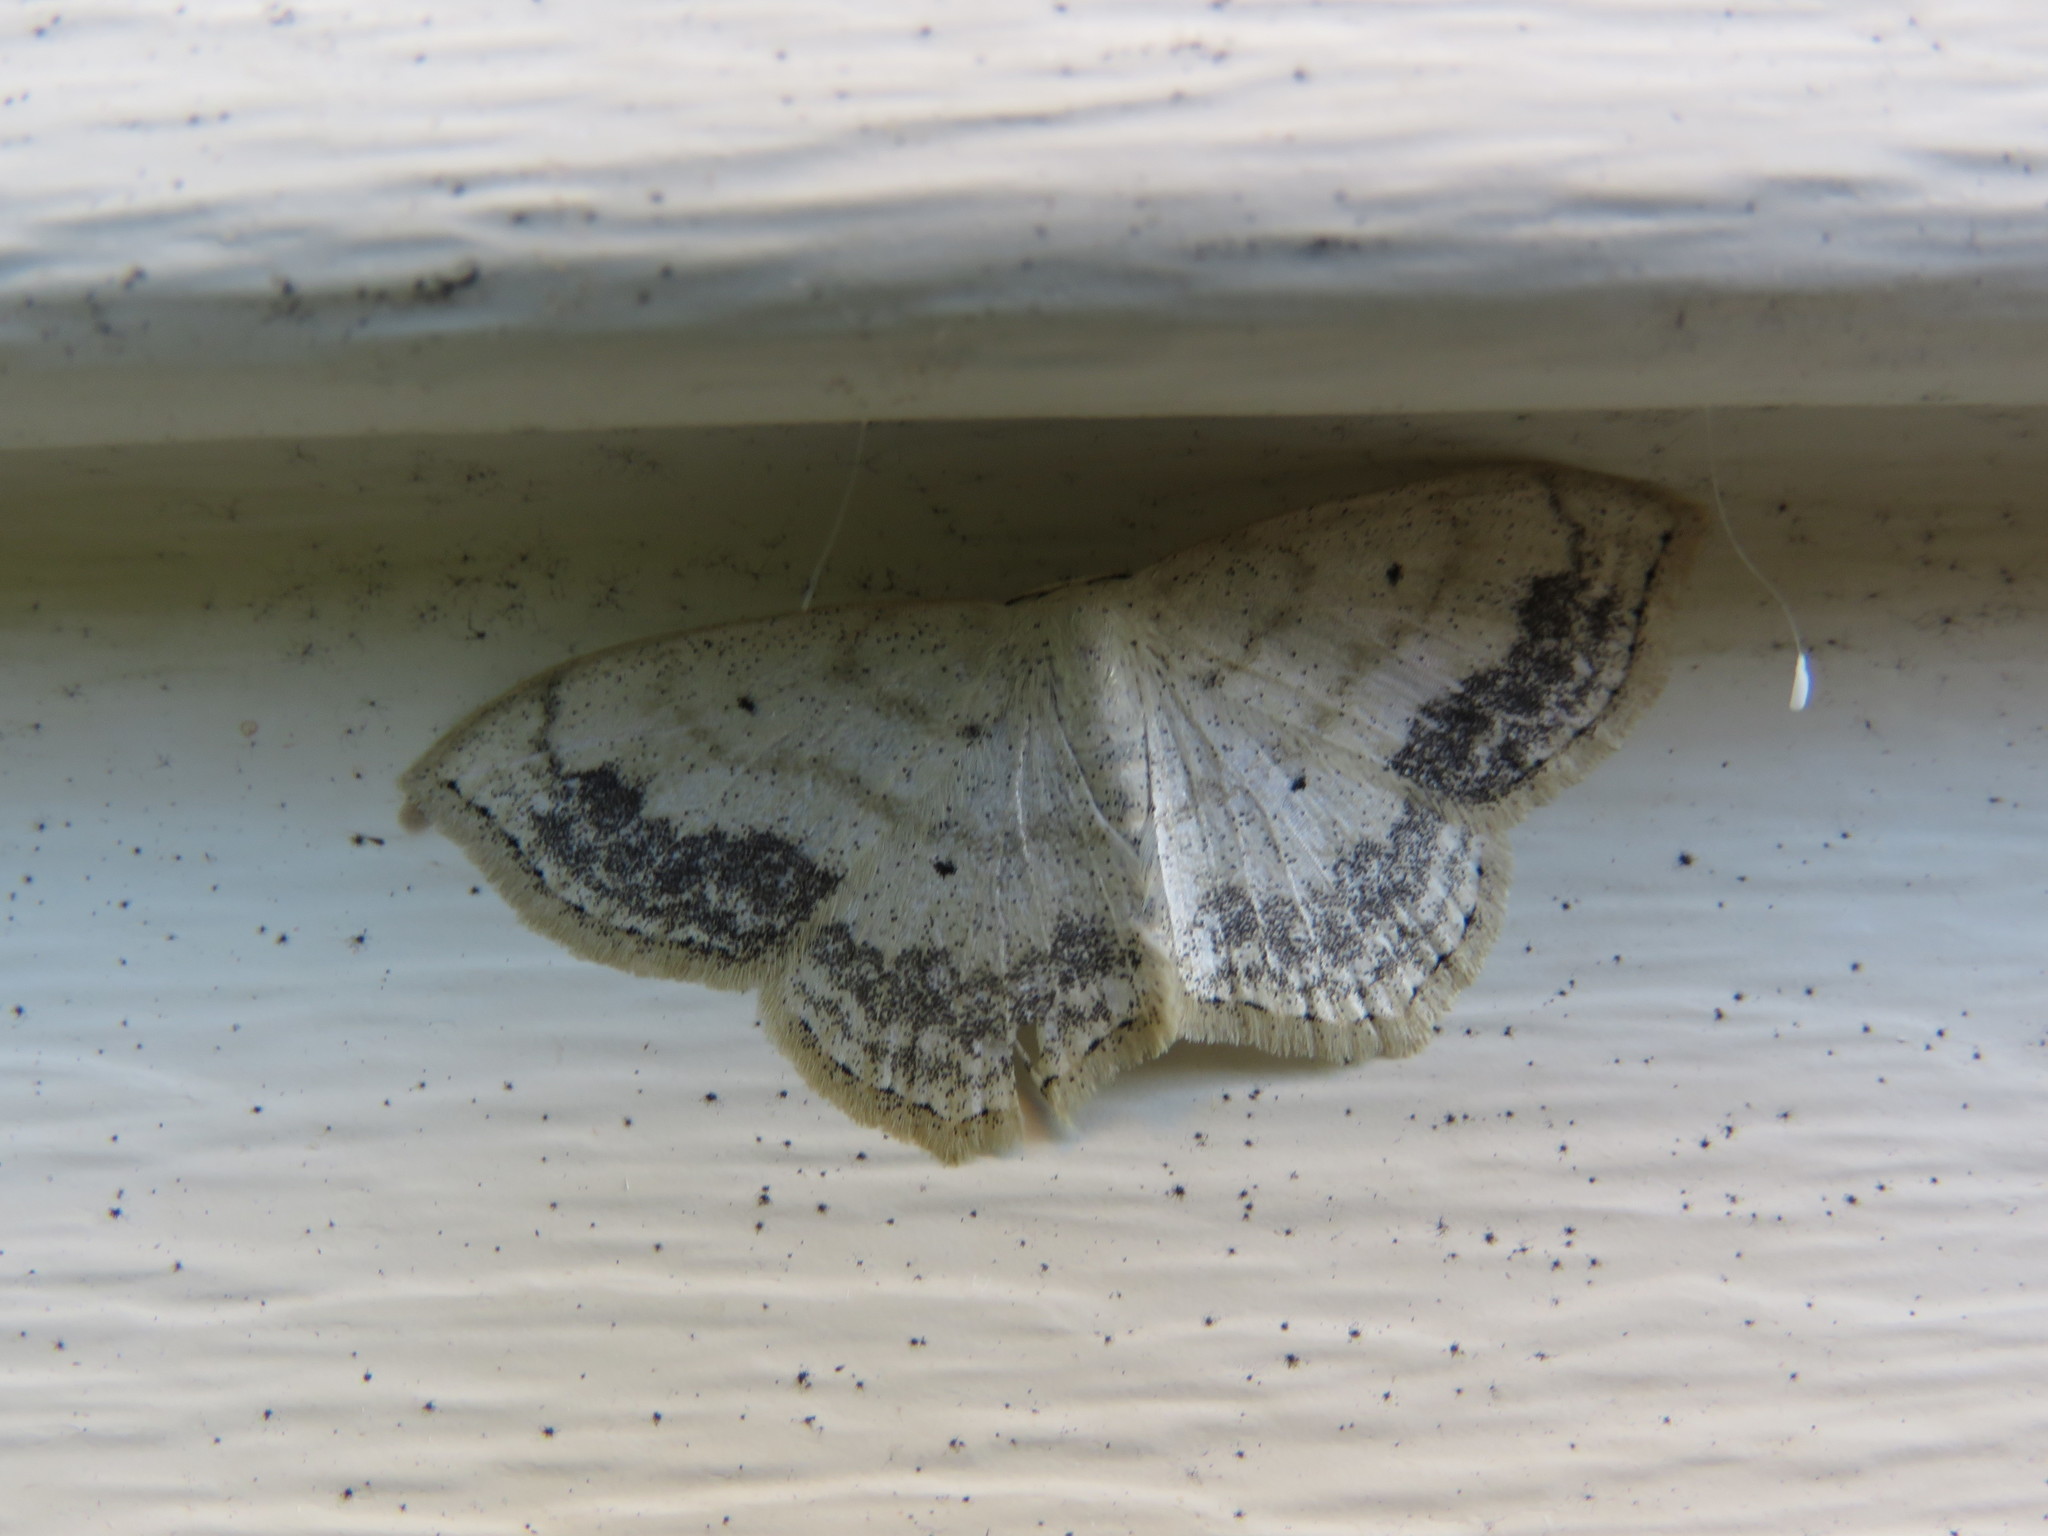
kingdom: Animalia
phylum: Arthropoda
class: Insecta
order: Lepidoptera
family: Geometridae
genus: Scopula
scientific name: Scopula limboundata
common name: Large lace border
